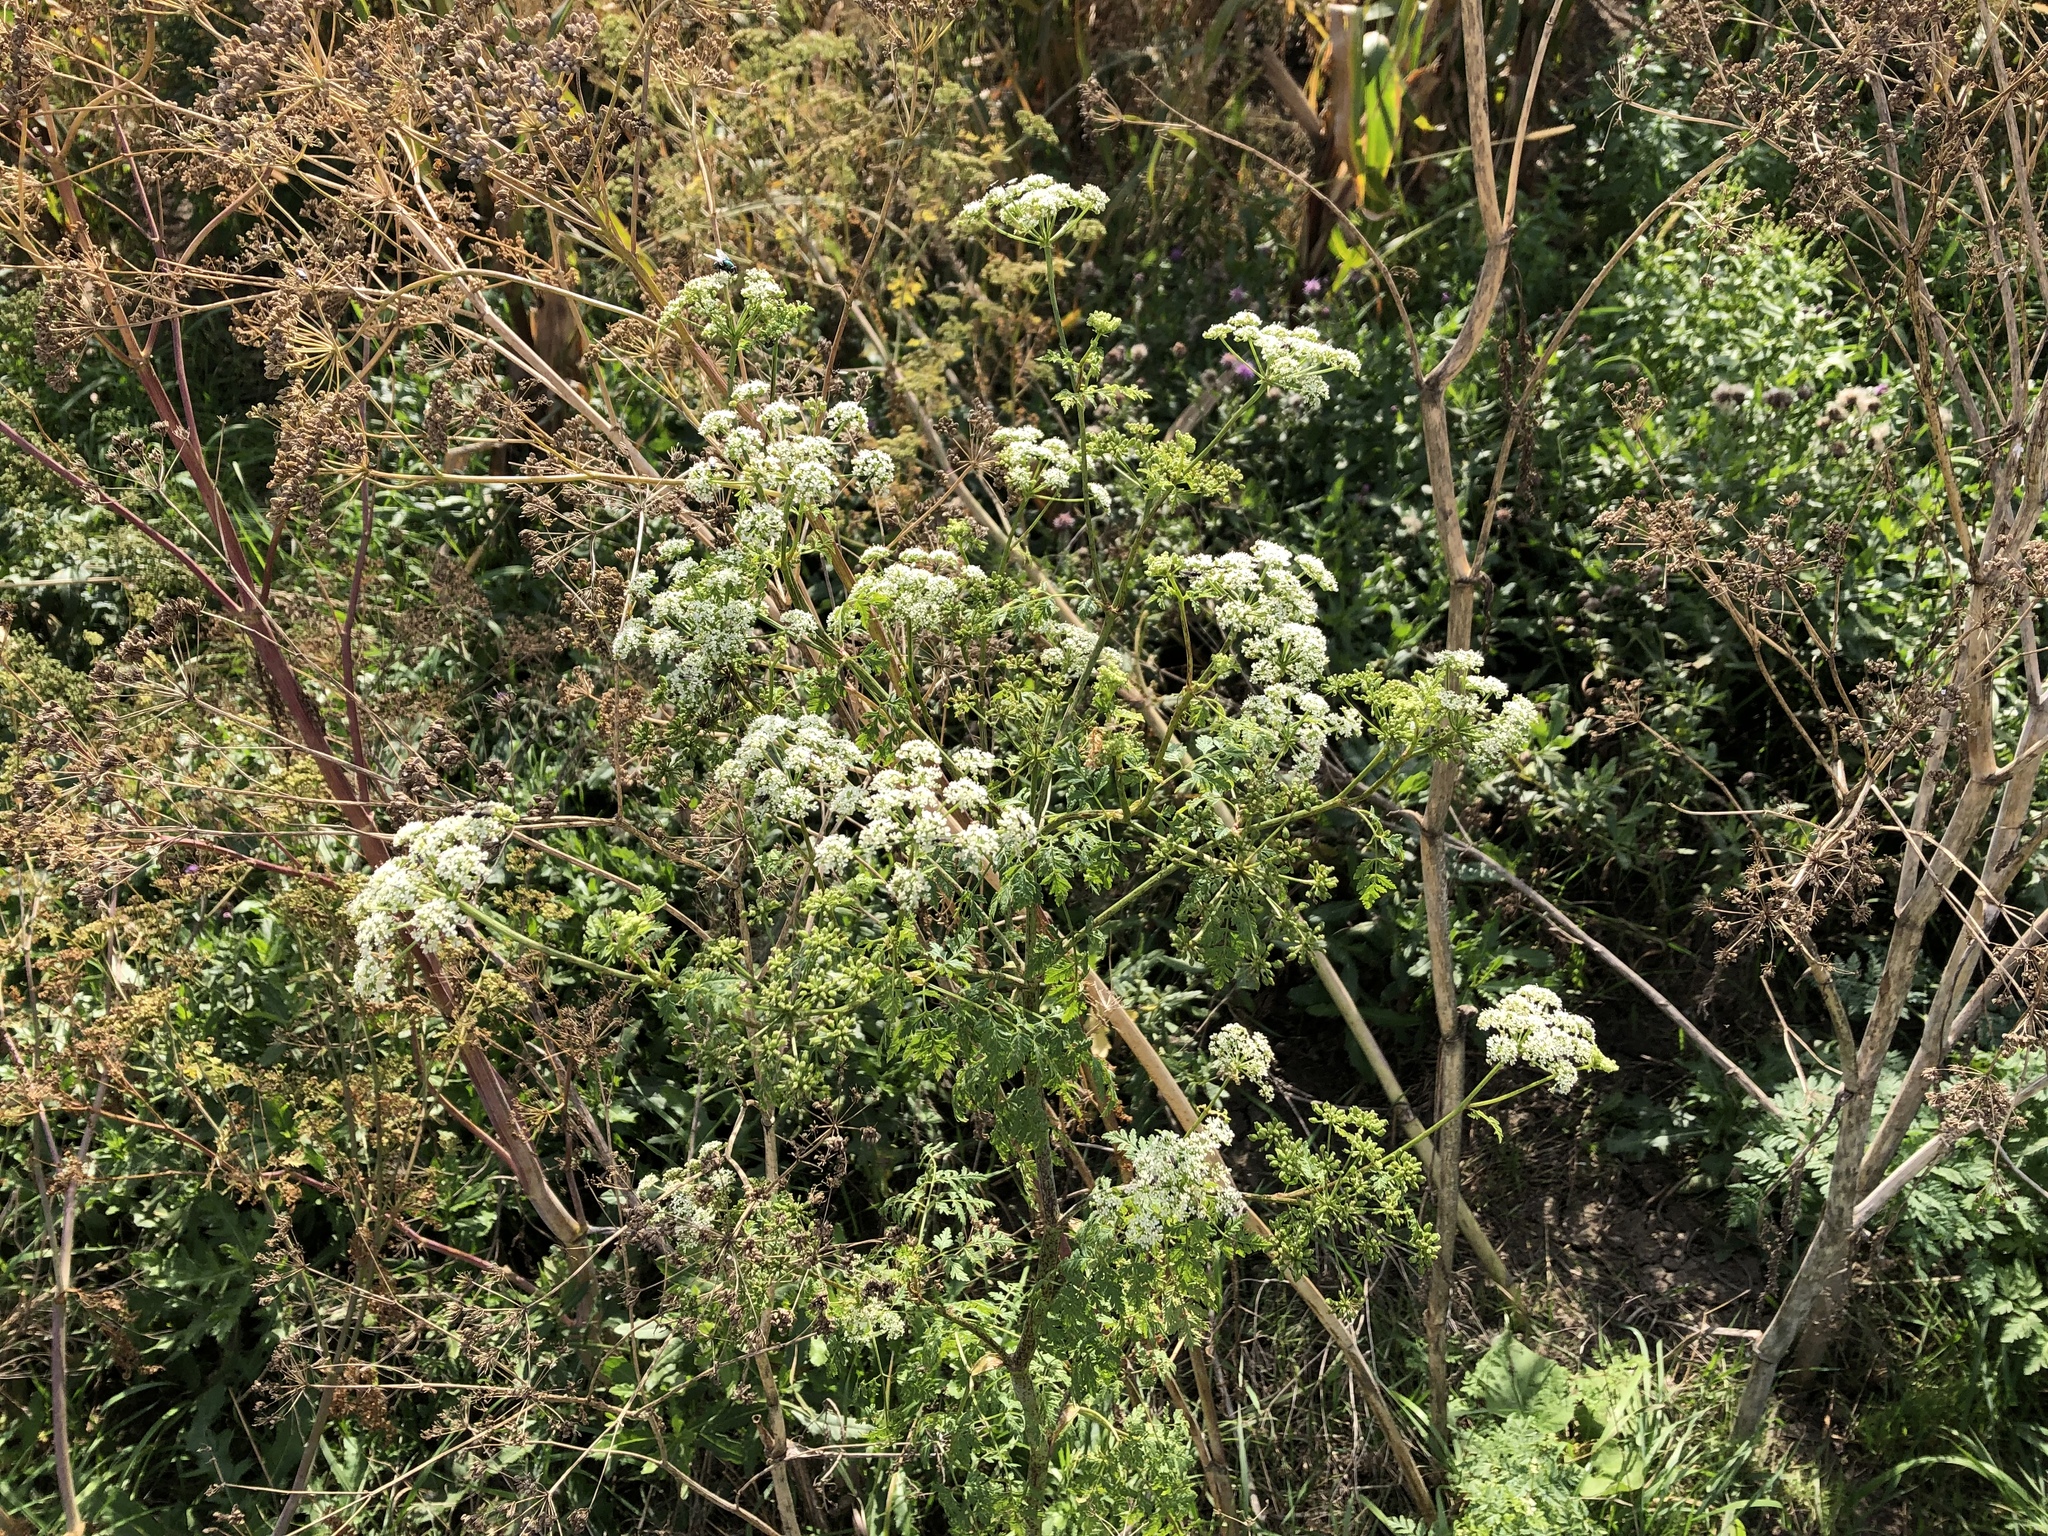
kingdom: Plantae
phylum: Tracheophyta
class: Magnoliopsida
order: Apiales
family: Apiaceae
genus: Conium
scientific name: Conium maculatum
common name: Hemlock
